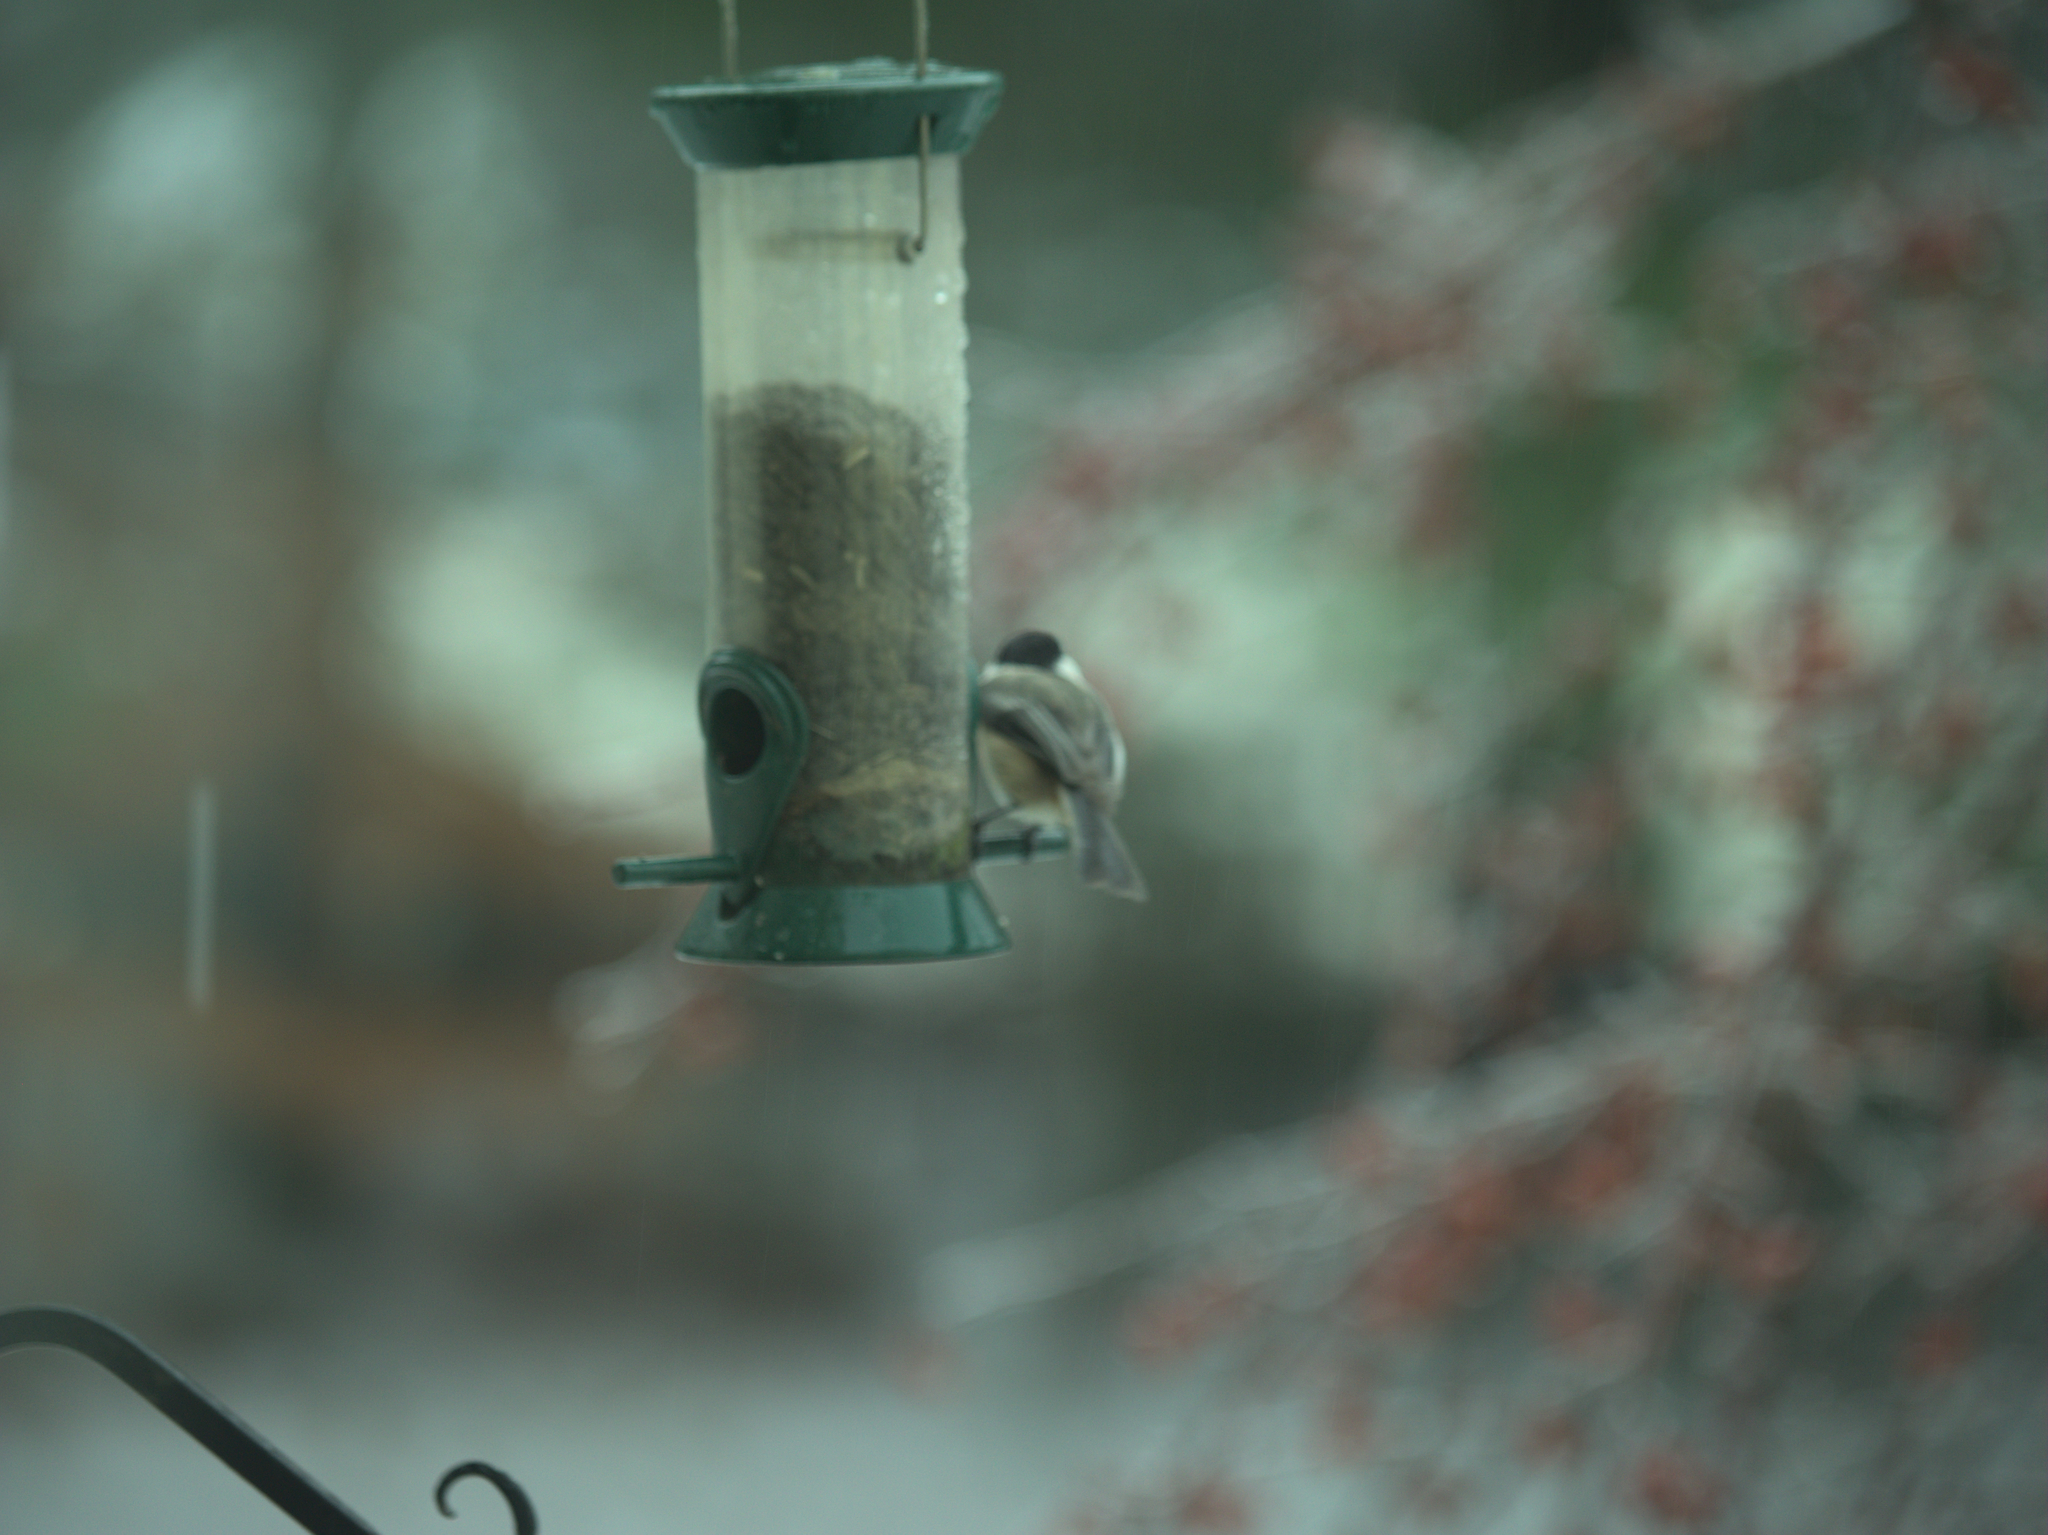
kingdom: Animalia
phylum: Chordata
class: Aves
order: Passeriformes
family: Paridae
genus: Poecile
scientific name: Poecile atricapillus
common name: Black-capped chickadee
